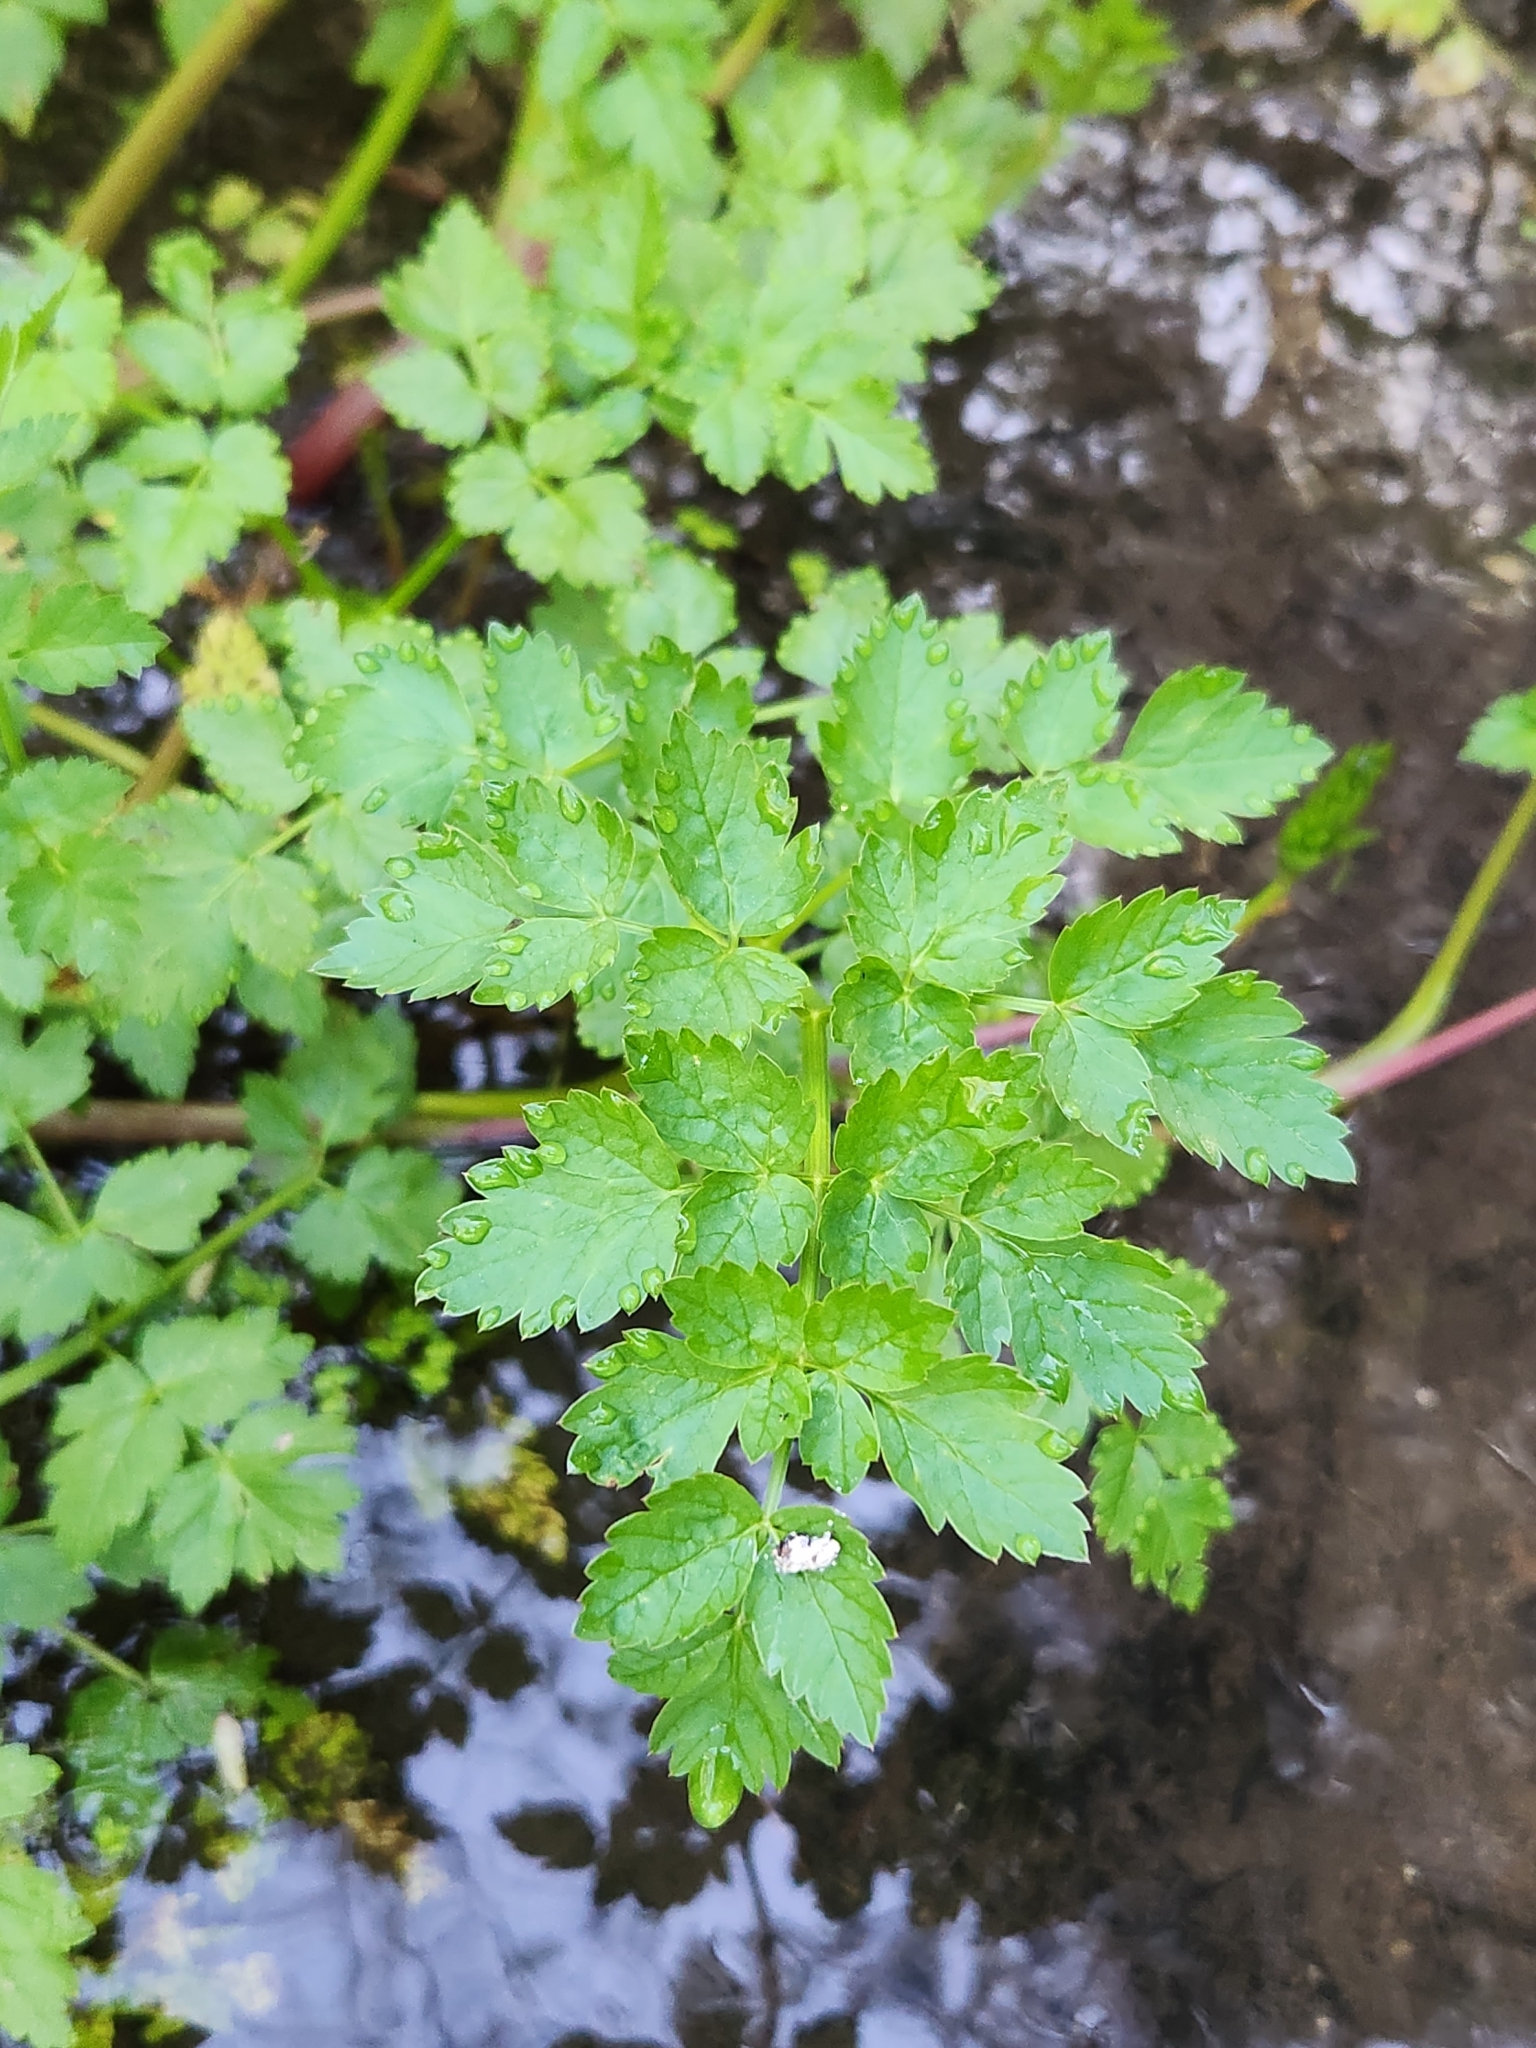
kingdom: Plantae
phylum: Tracheophyta
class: Magnoliopsida
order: Apiales
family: Apiaceae
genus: Oenanthe
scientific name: Oenanthe sarmentosa
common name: American water-parsley
